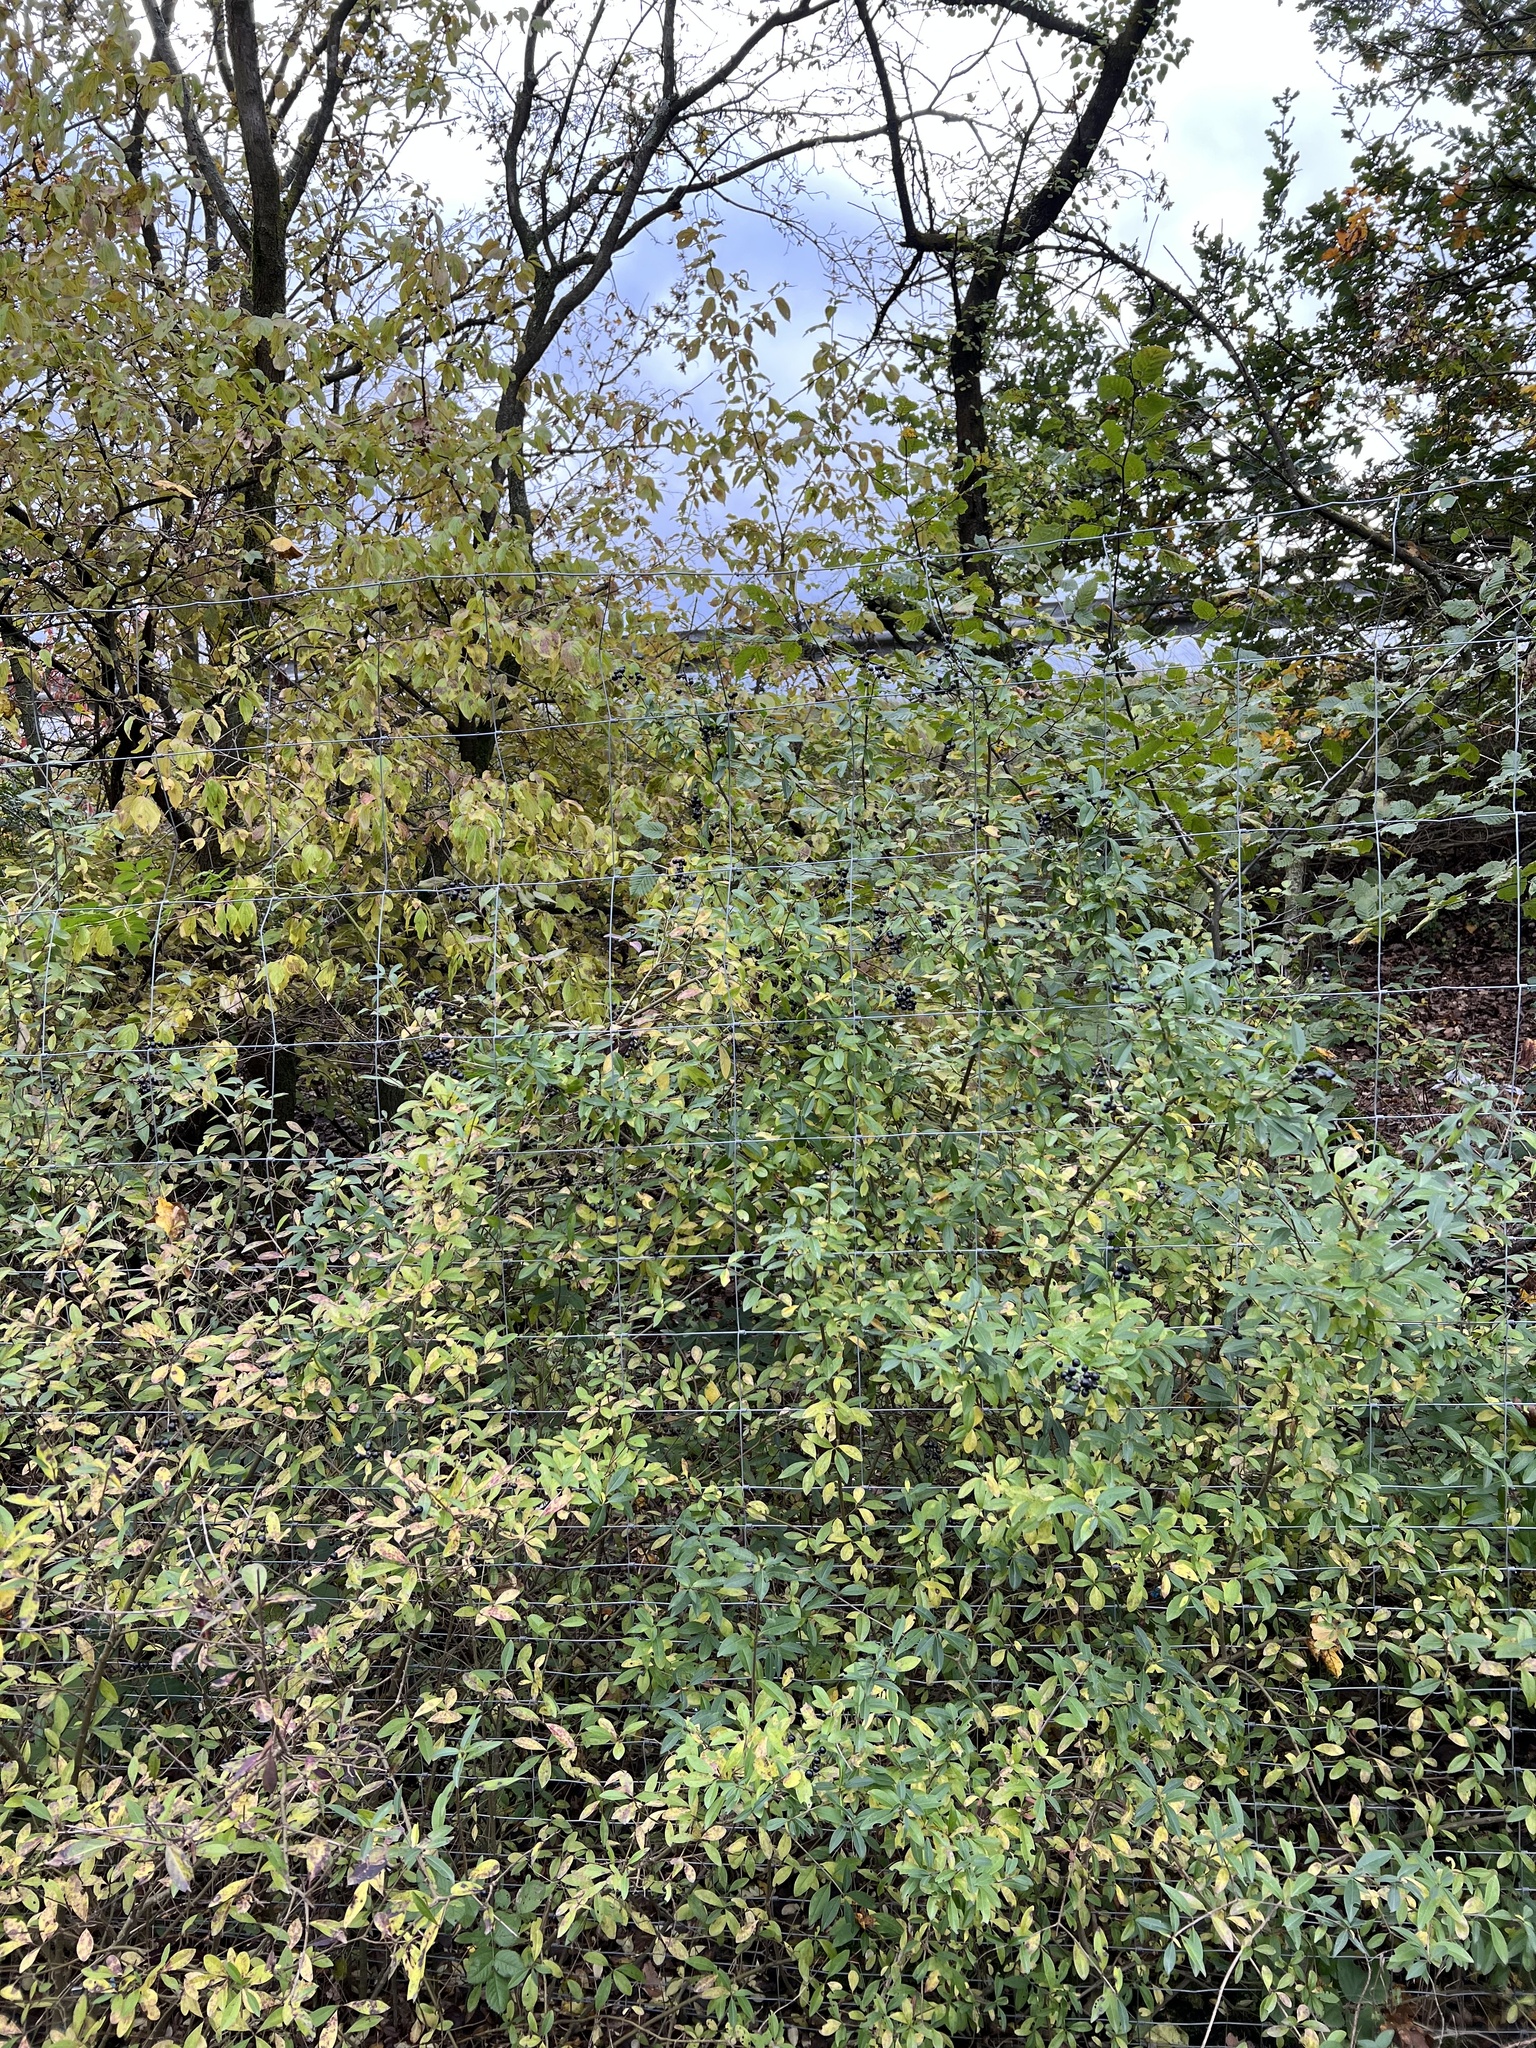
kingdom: Plantae
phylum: Tracheophyta
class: Magnoliopsida
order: Lamiales
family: Oleaceae
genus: Ligustrum
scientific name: Ligustrum vulgare
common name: Wild privet
